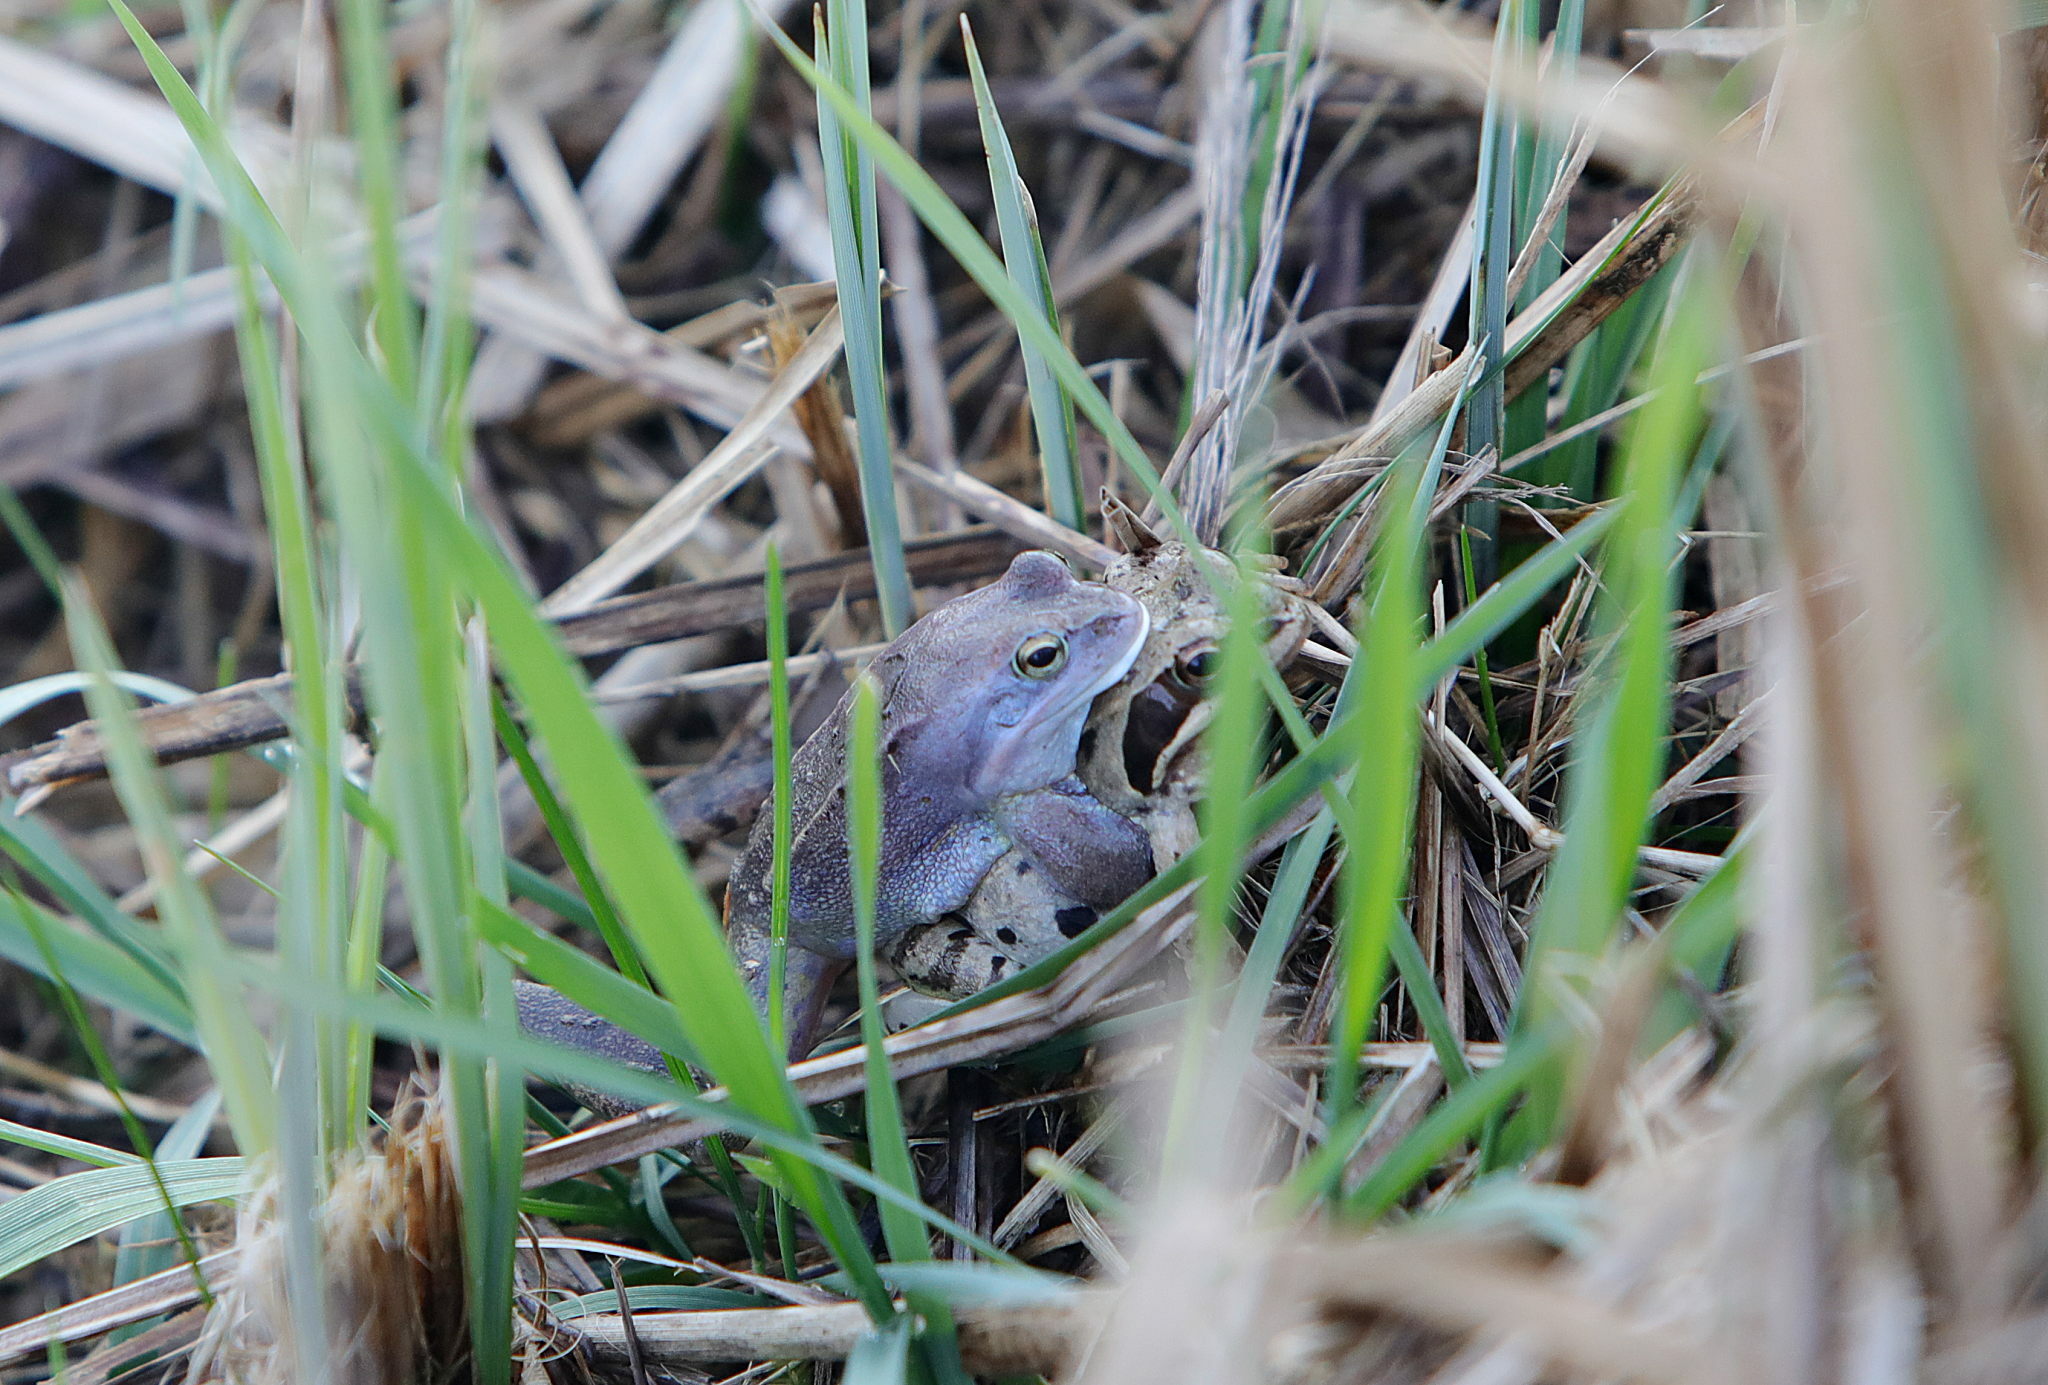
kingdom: Animalia
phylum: Chordata
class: Amphibia
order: Anura
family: Ranidae
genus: Rana
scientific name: Rana arvalis
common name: Moor frog
